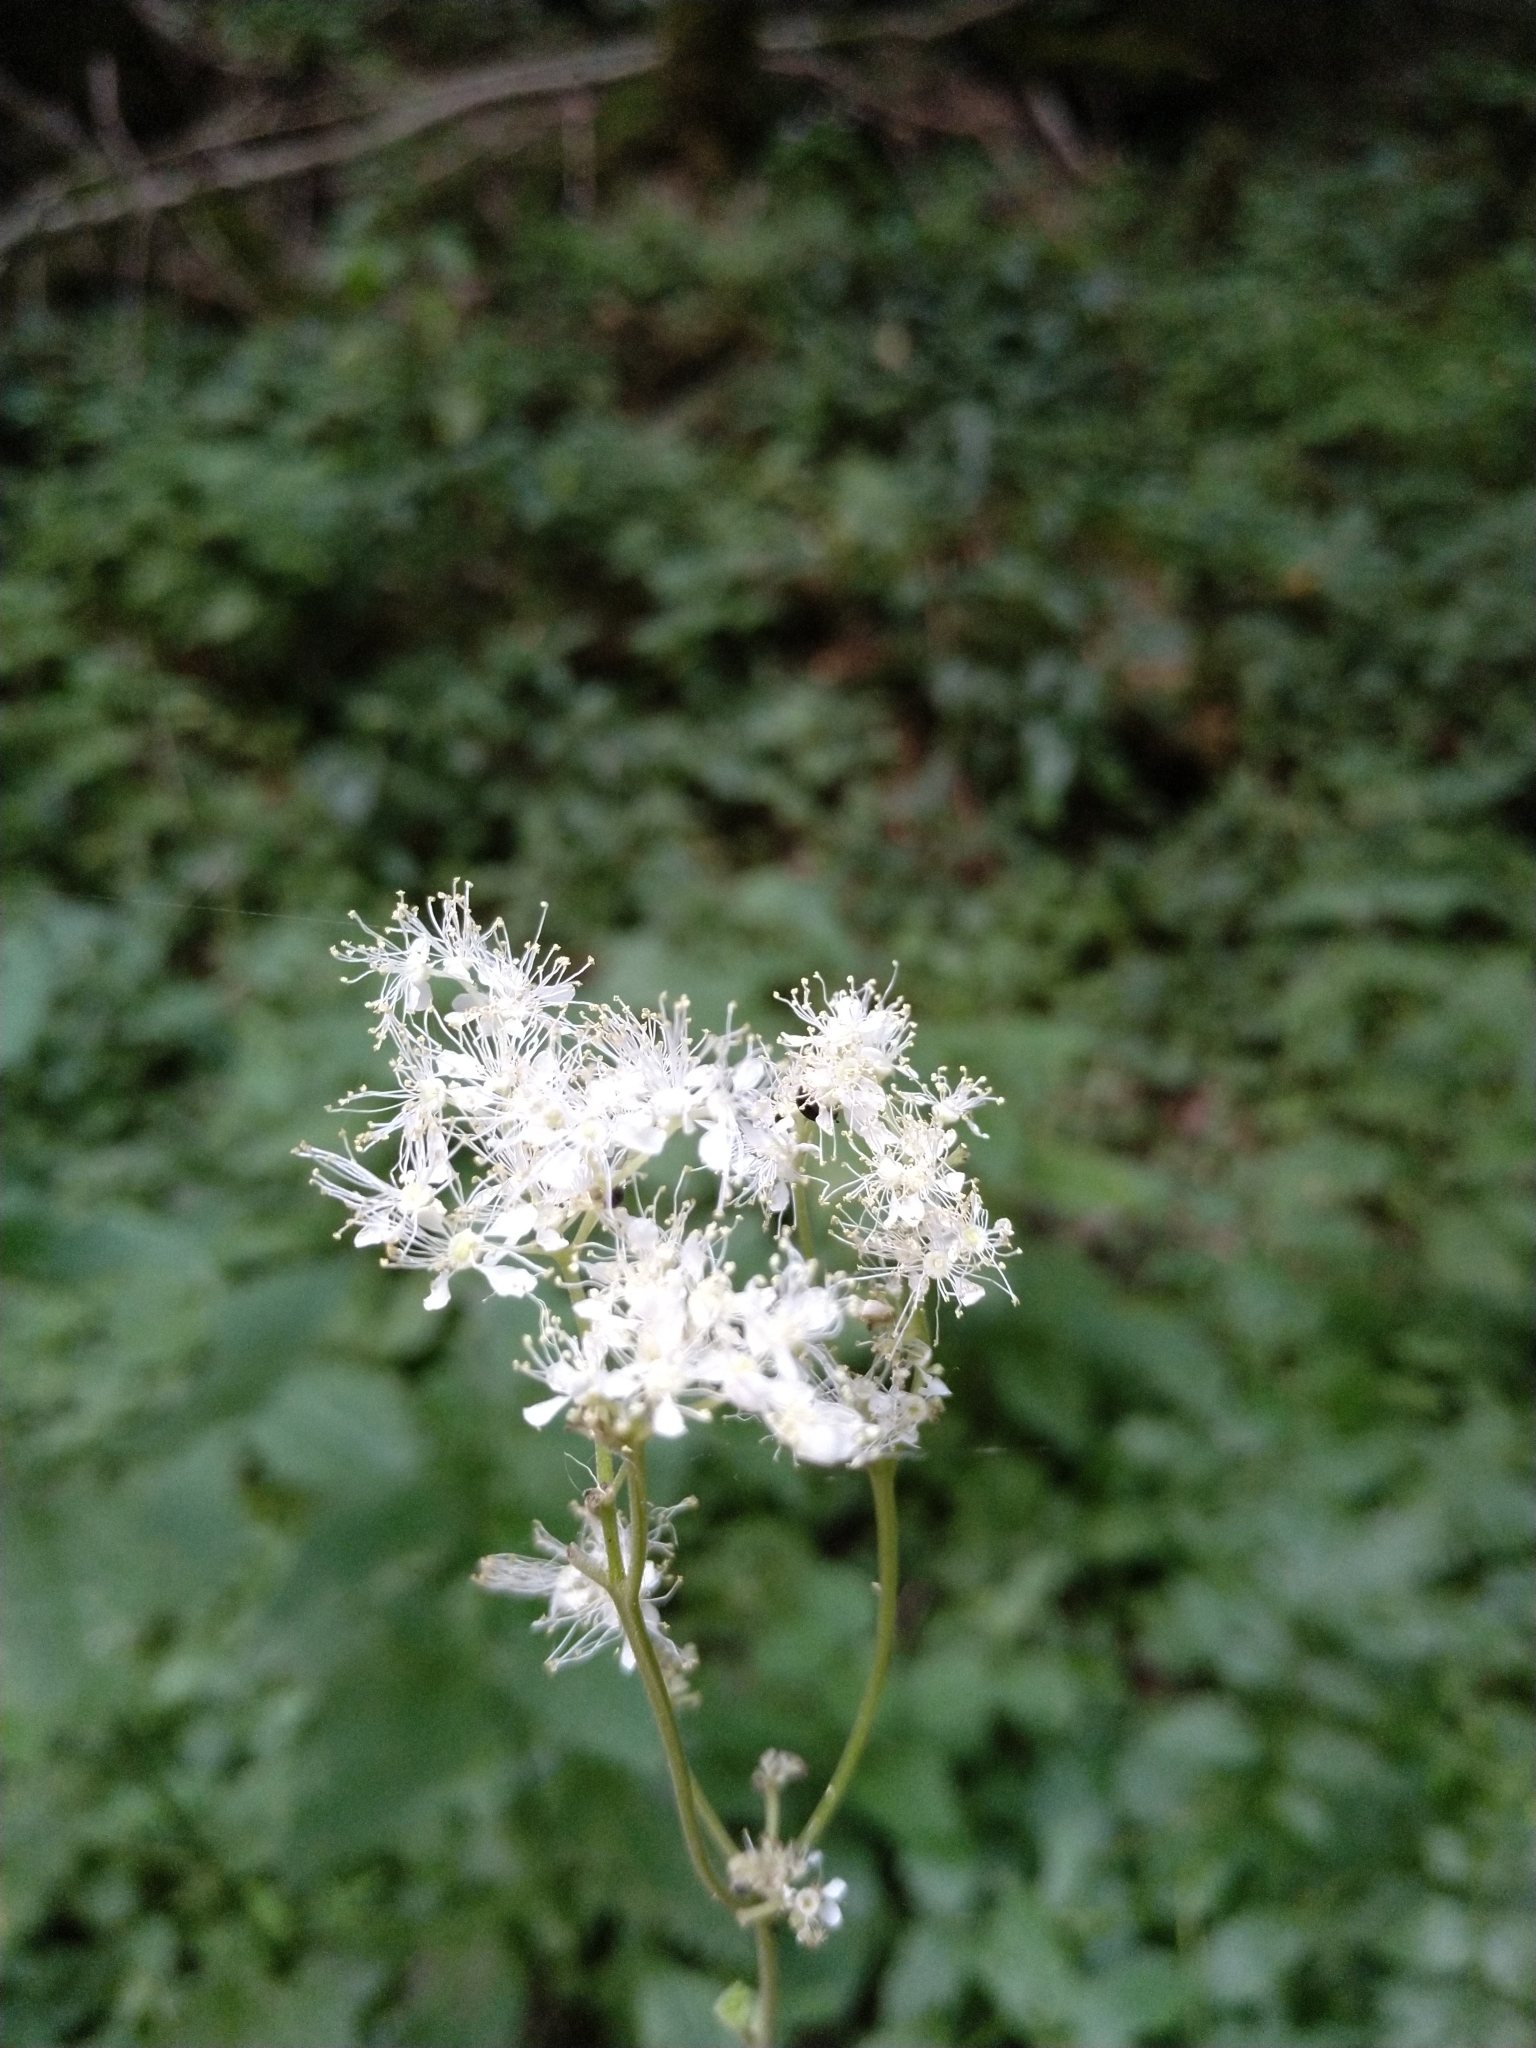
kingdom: Plantae
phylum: Tracheophyta
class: Magnoliopsida
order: Rosales
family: Rosaceae
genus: Filipendula
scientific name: Filipendula ulmaria
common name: Meadowsweet
